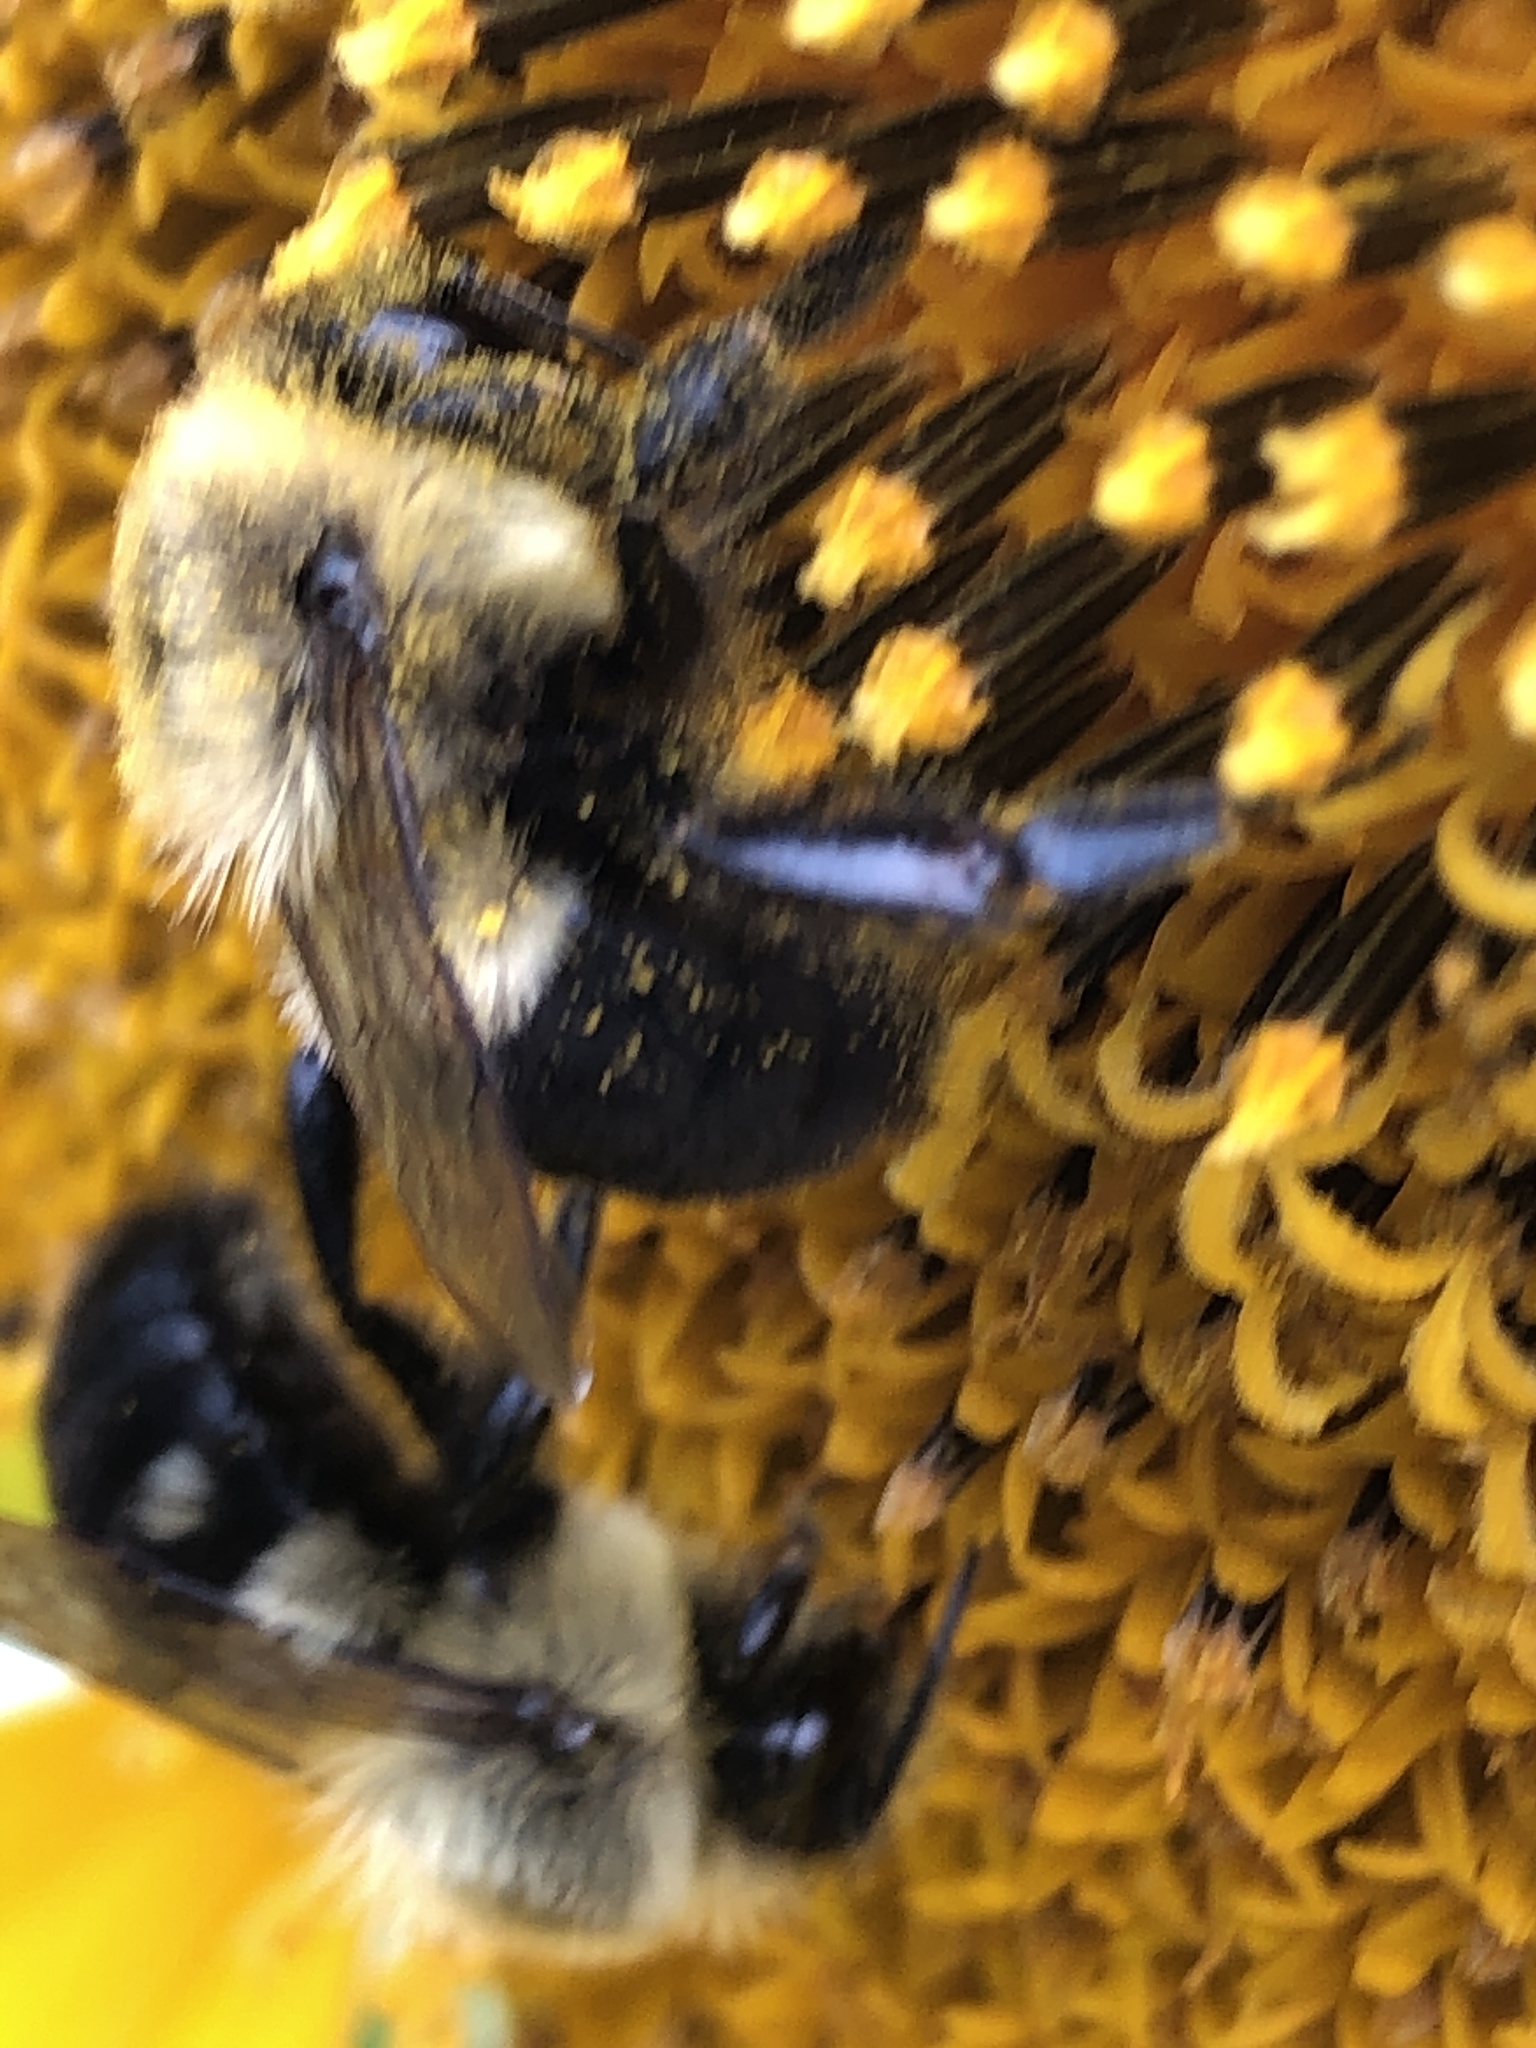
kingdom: Animalia
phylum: Arthropoda
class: Insecta
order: Hymenoptera
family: Apidae
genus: Bombus
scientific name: Bombus impatiens
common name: Common eastern bumble bee
